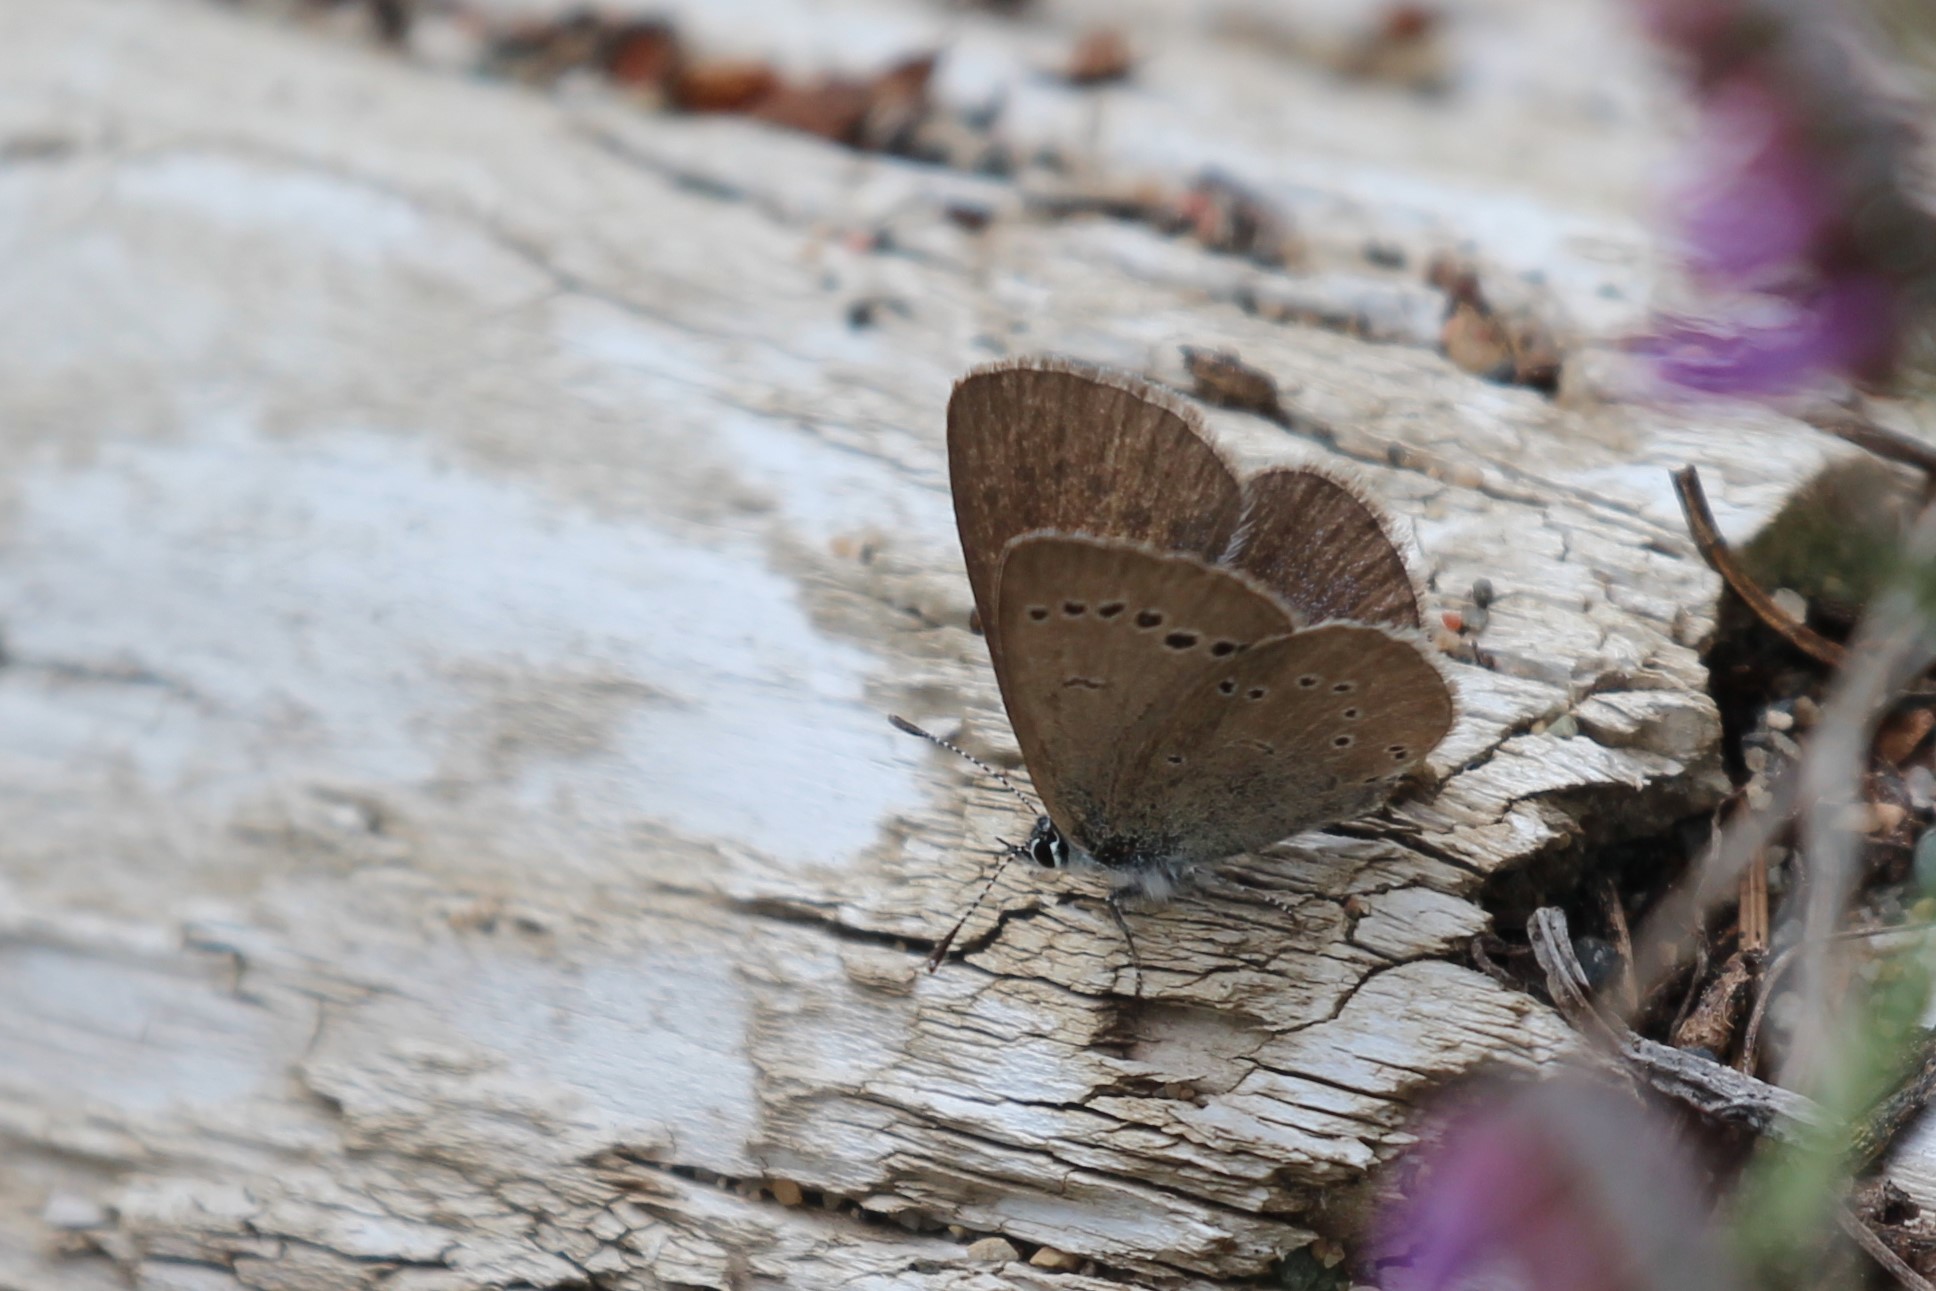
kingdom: Animalia
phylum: Arthropoda
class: Insecta
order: Lepidoptera
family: Lycaenidae
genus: Glaucopsyche
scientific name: Glaucopsyche lygdamus
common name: Silvery blue
